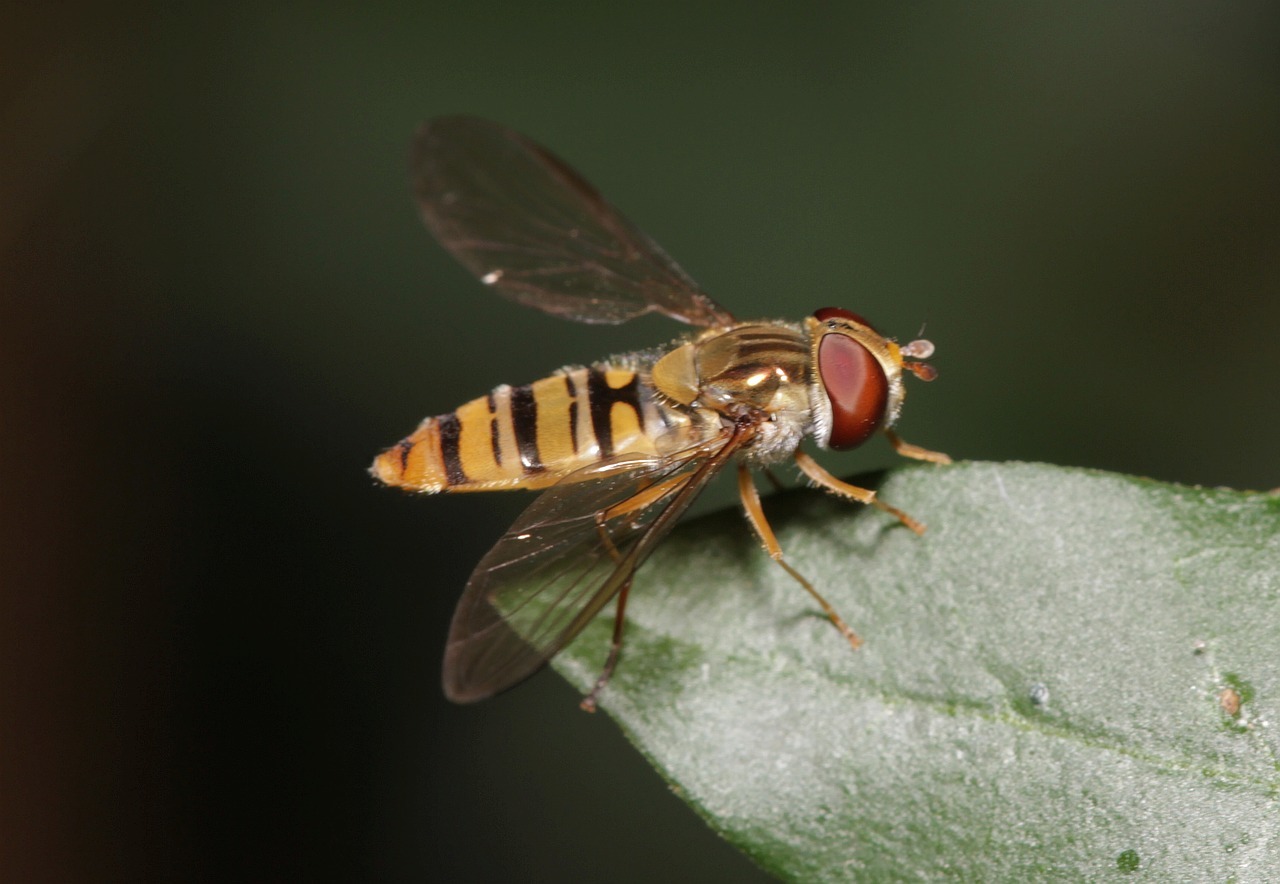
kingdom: Animalia
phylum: Arthropoda
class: Insecta
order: Diptera
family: Syrphidae
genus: Episyrphus
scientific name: Episyrphus balteatus
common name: Marmalade hoverfly
